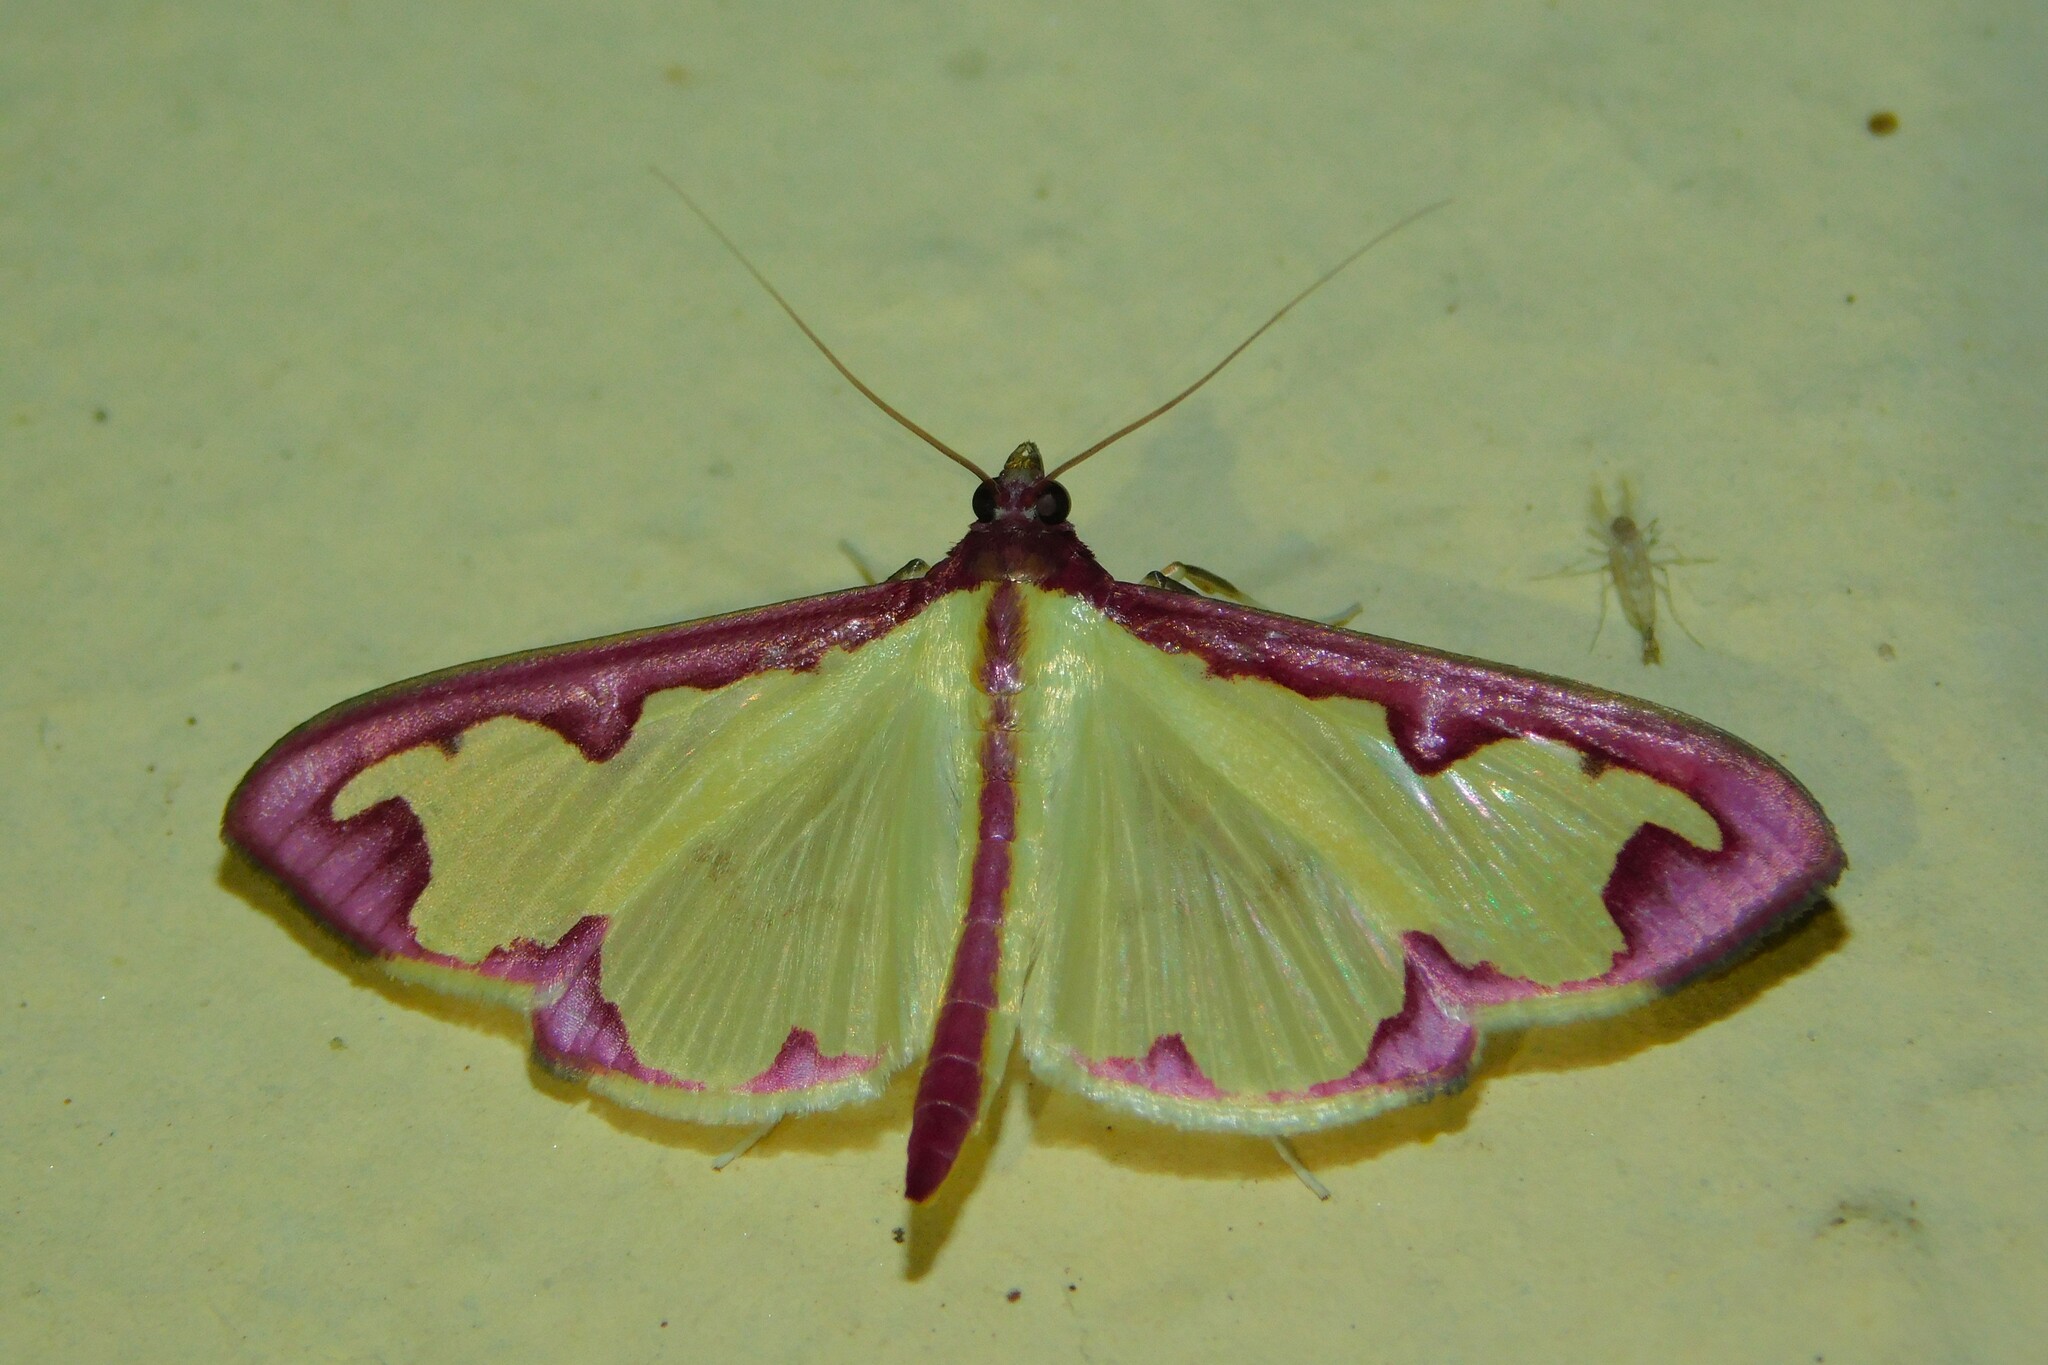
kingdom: Animalia
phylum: Arthropoda
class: Insecta
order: Lepidoptera
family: Crambidae
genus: Cadarena
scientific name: Cadarena pudoraria
